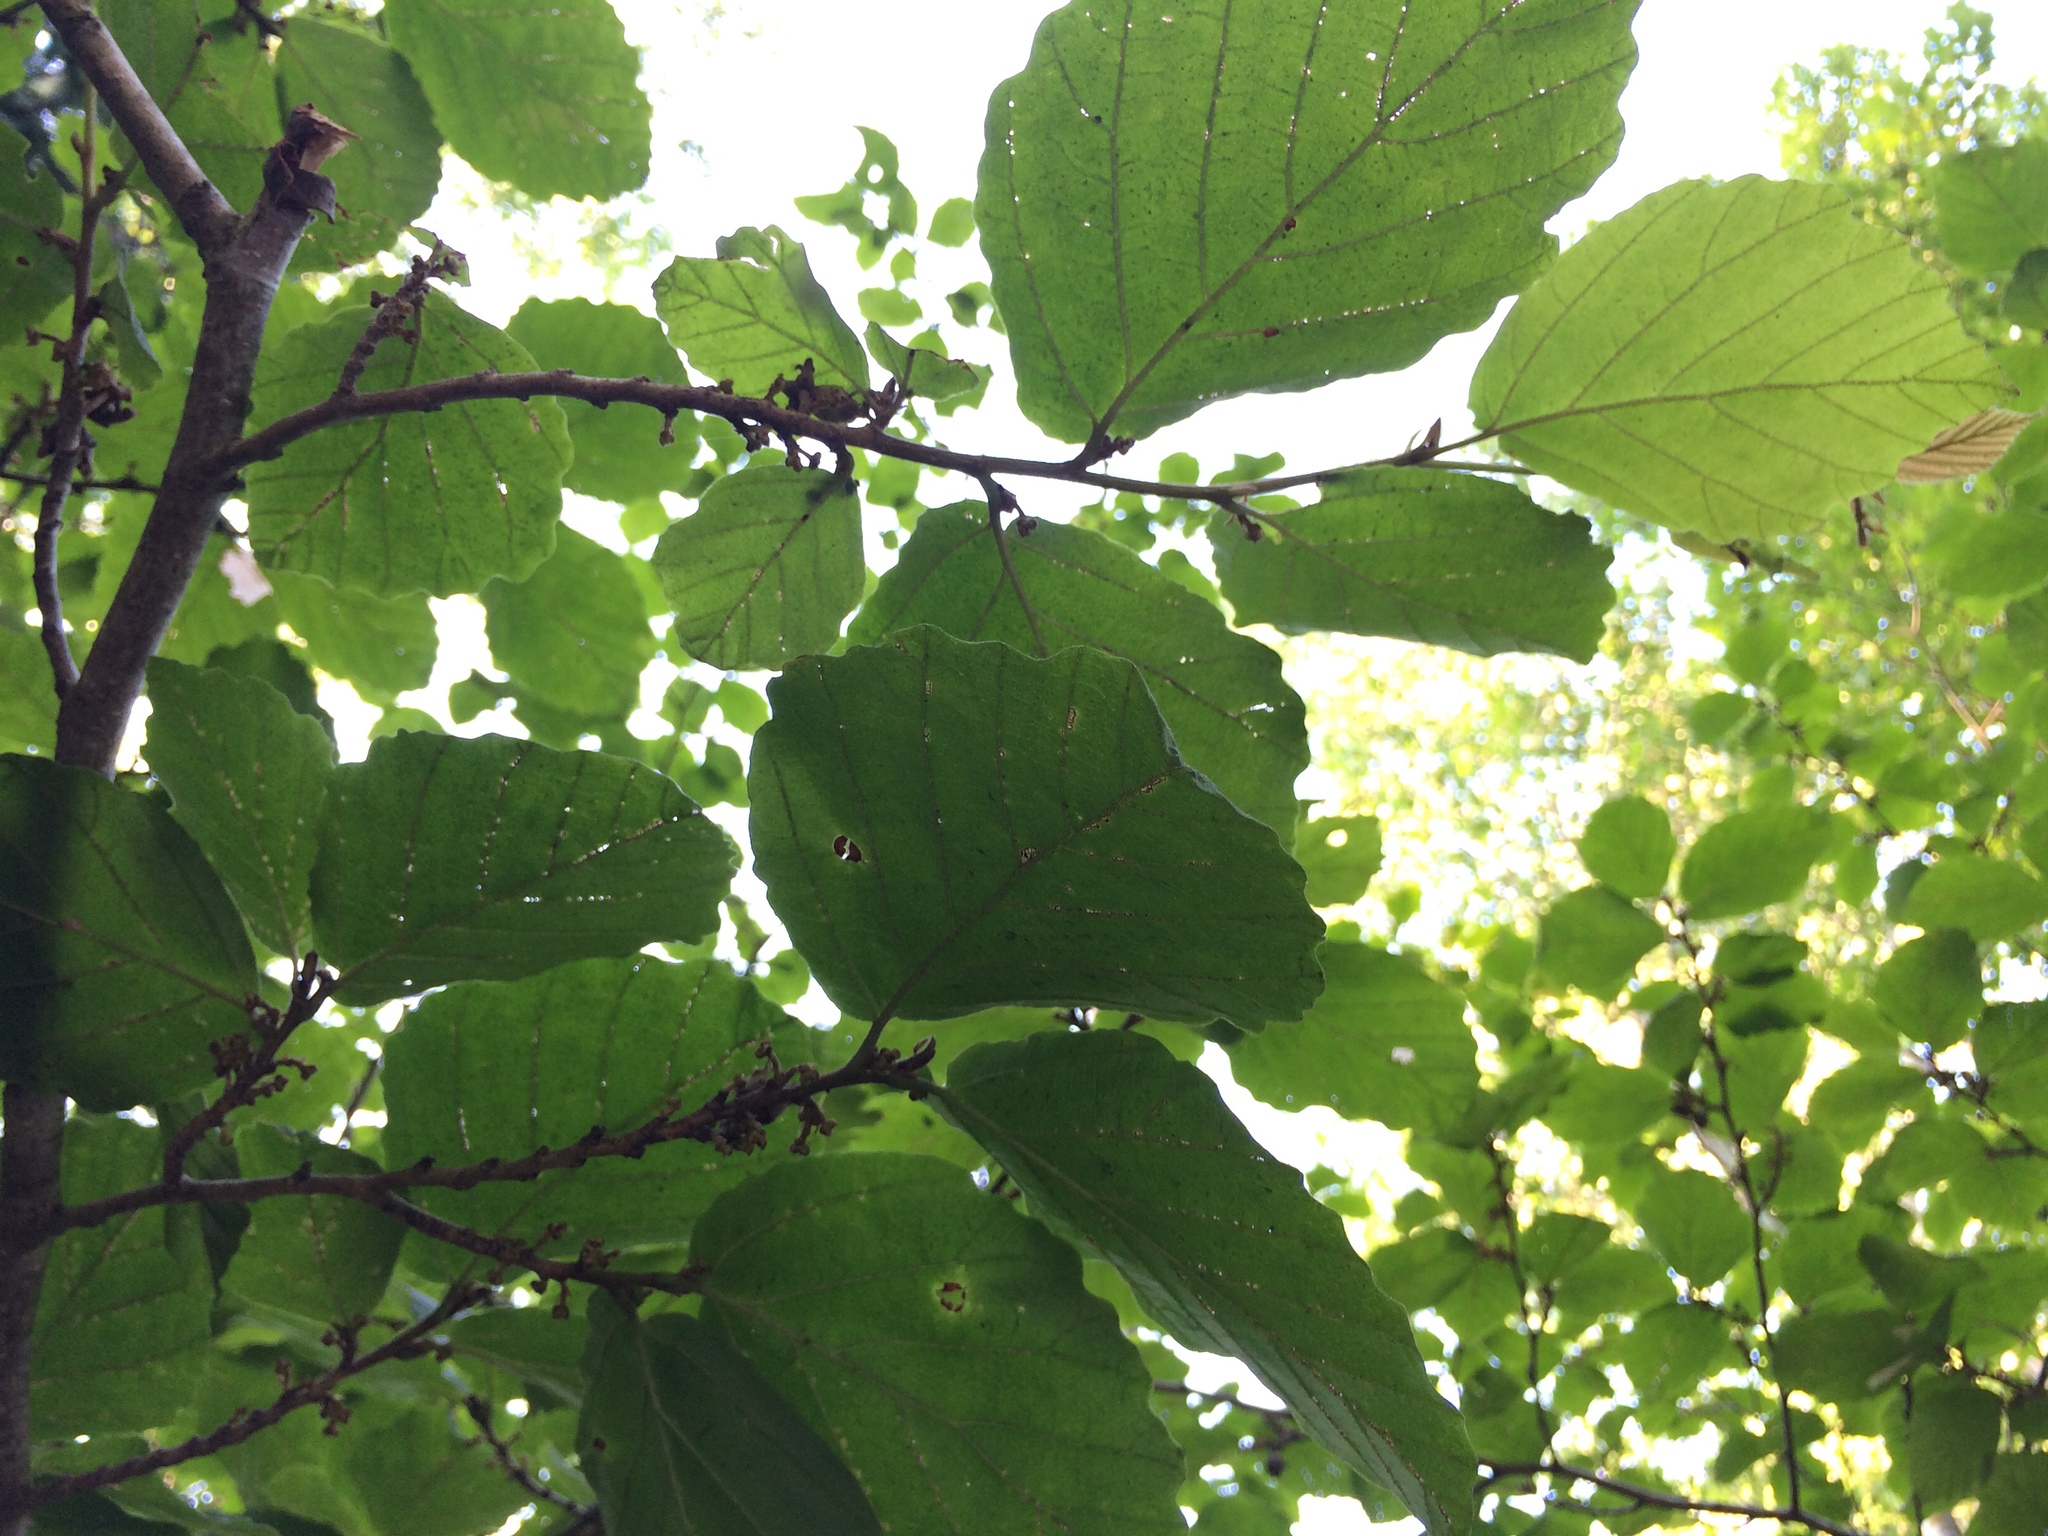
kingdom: Plantae
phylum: Tracheophyta
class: Magnoliopsida
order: Saxifragales
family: Hamamelidaceae
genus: Hamamelis
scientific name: Hamamelis virginiana
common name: Witch-hazel
